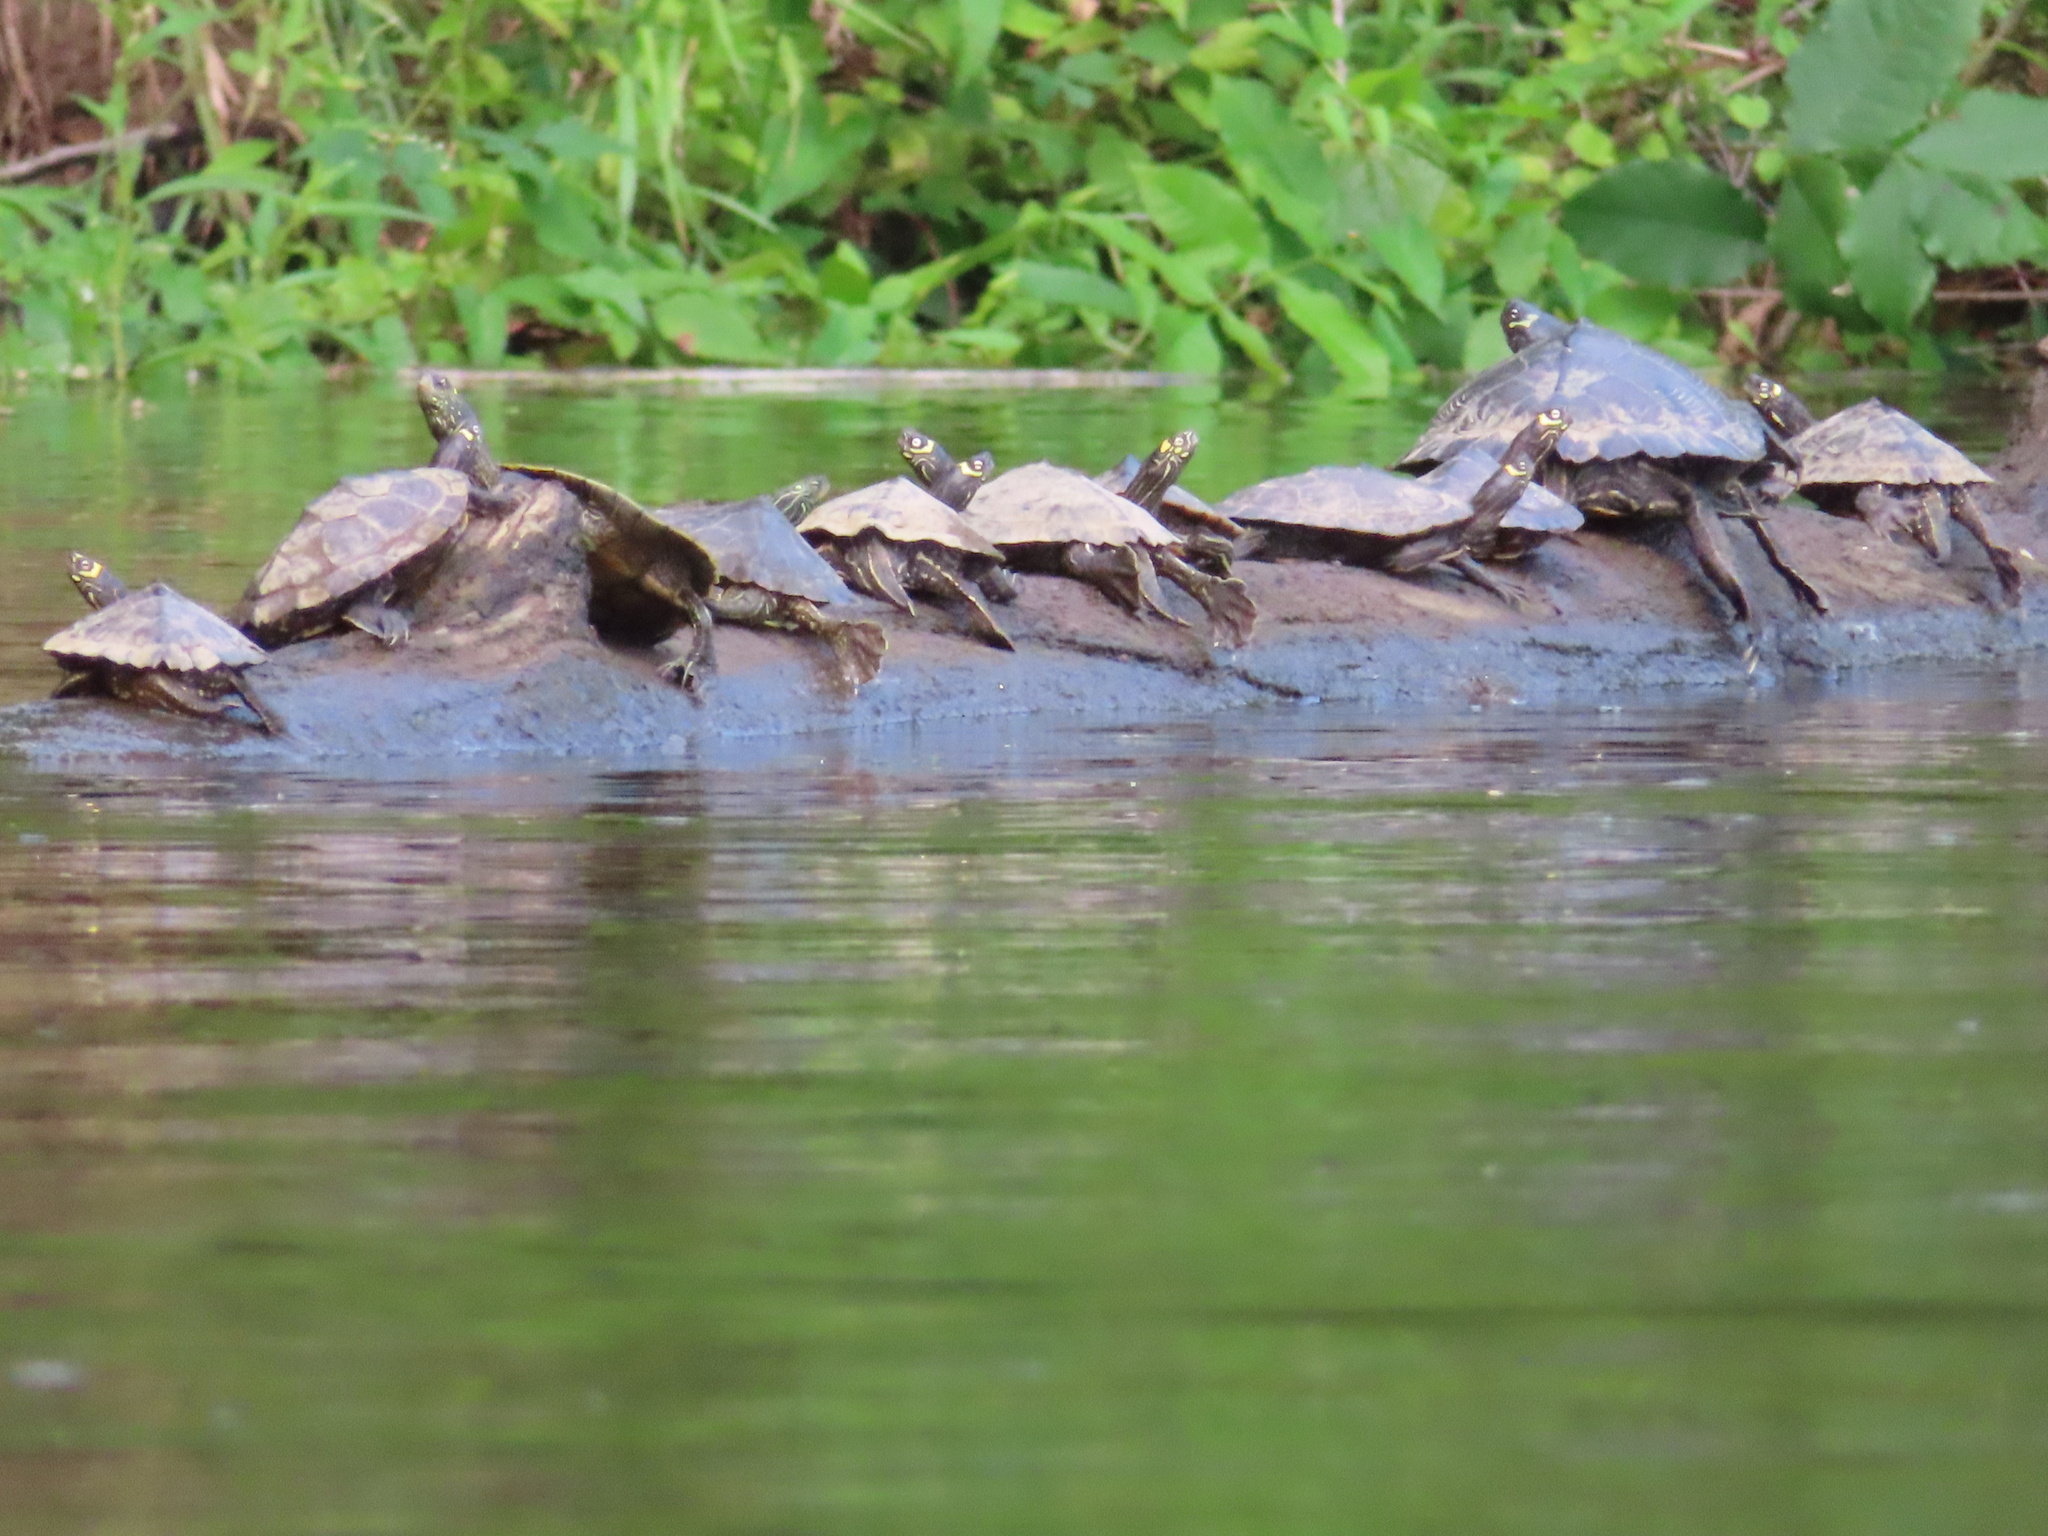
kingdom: Animalia
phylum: Chordata
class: Testudines
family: Emydidae
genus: Graptemys
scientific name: Graptemys ouachitensis
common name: Ouachita map turtle
